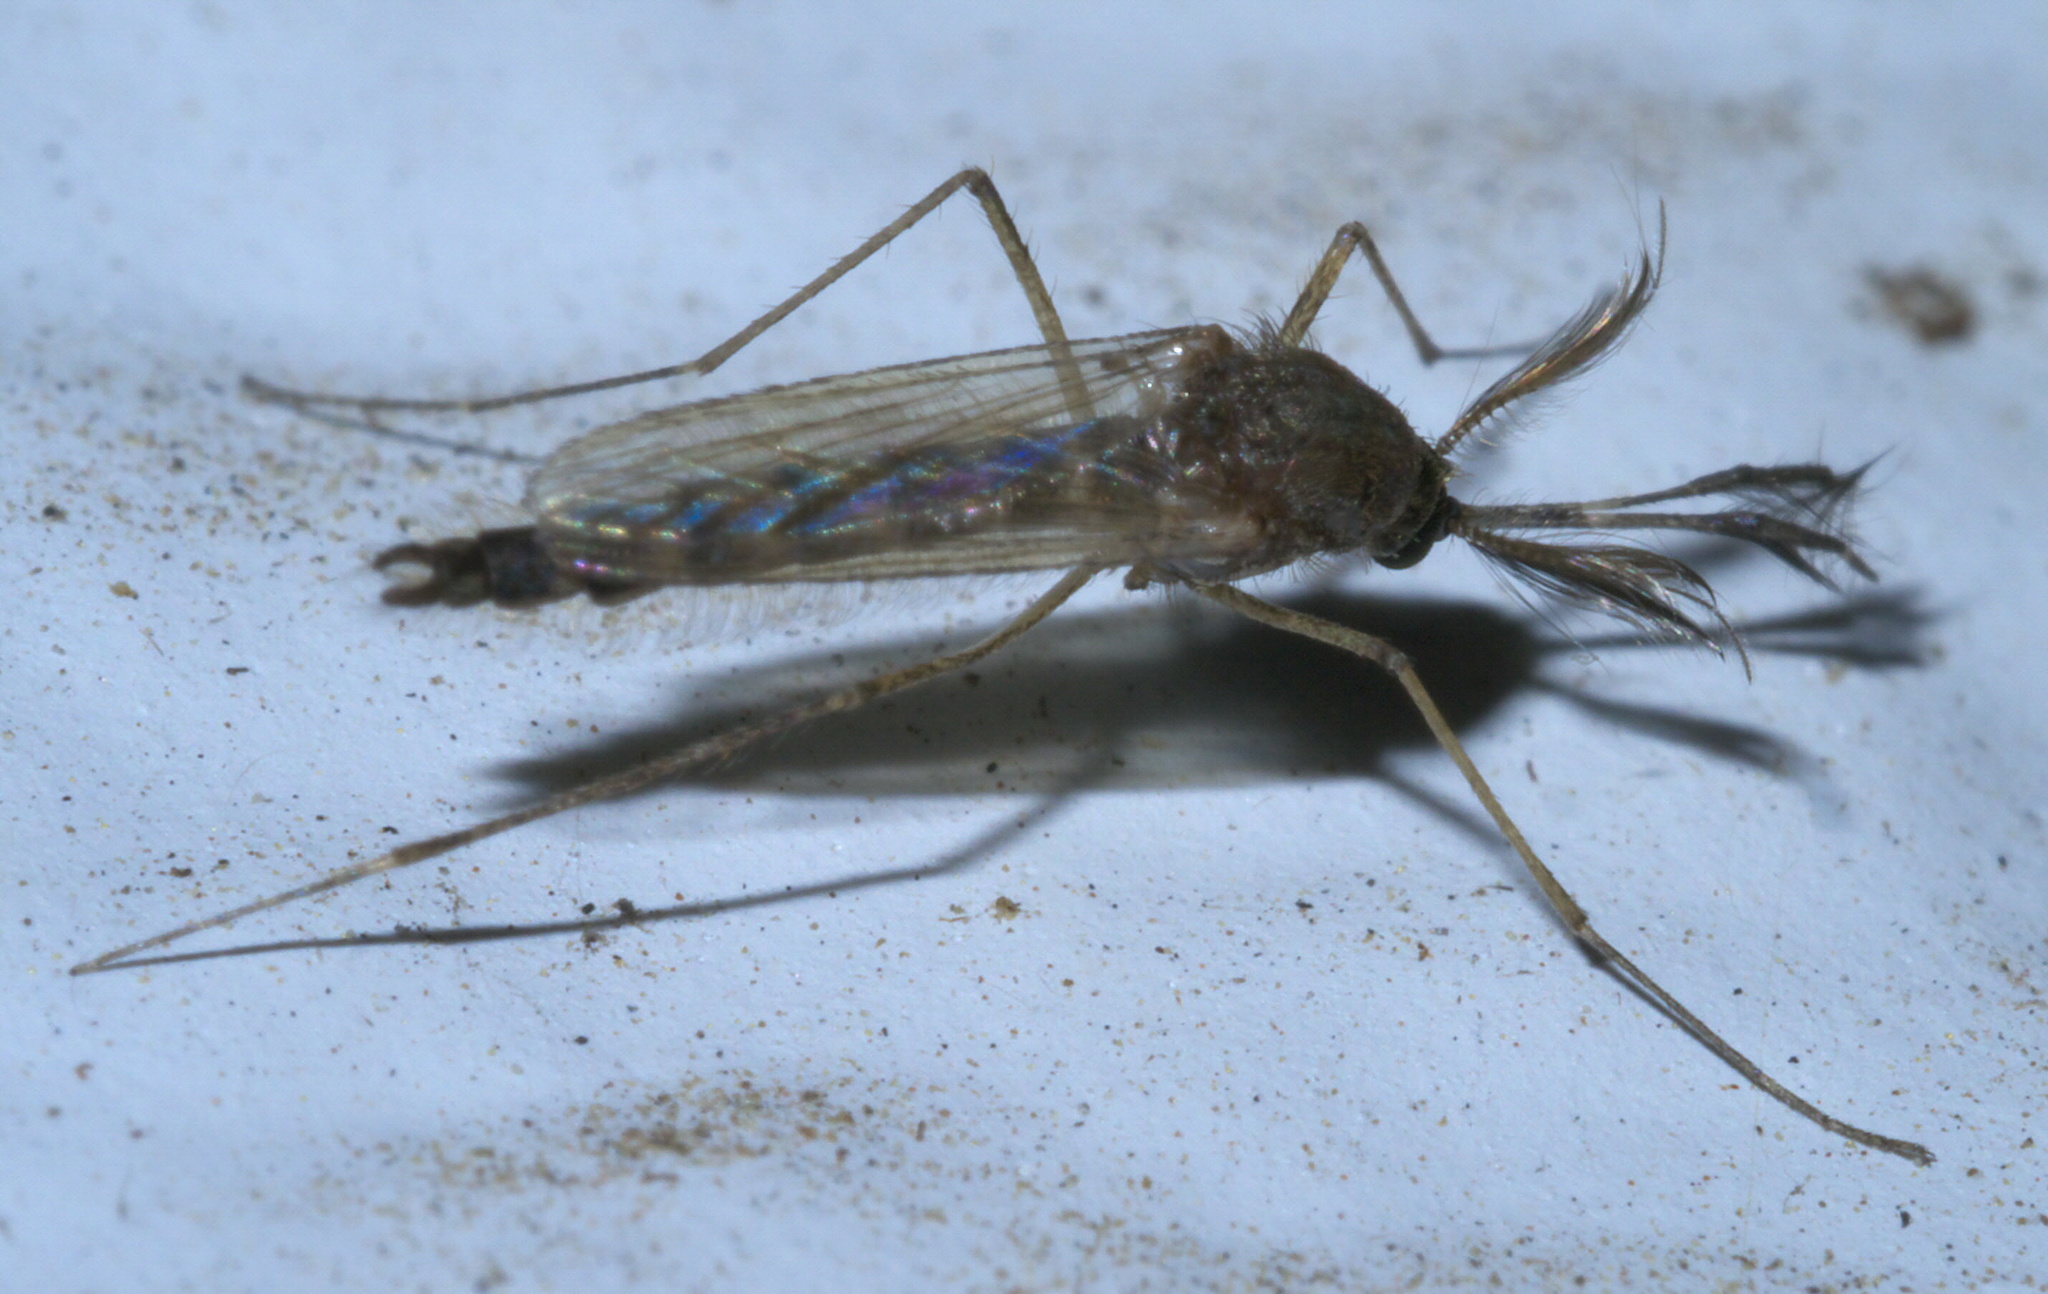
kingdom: Animalia
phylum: Arthropoda
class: Insecta
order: Diptera
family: Culicidae
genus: Aedes
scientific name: Aedes vexans
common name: Inland floodwater mosquito
